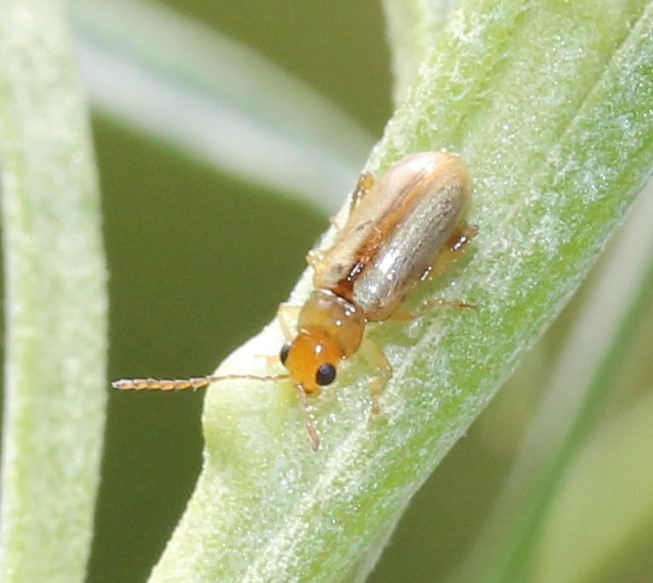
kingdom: Animalia
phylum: Arthropoda
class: Insecta
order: Coleoptera
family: Chrysomelidae
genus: Systena
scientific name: Systena laevis
